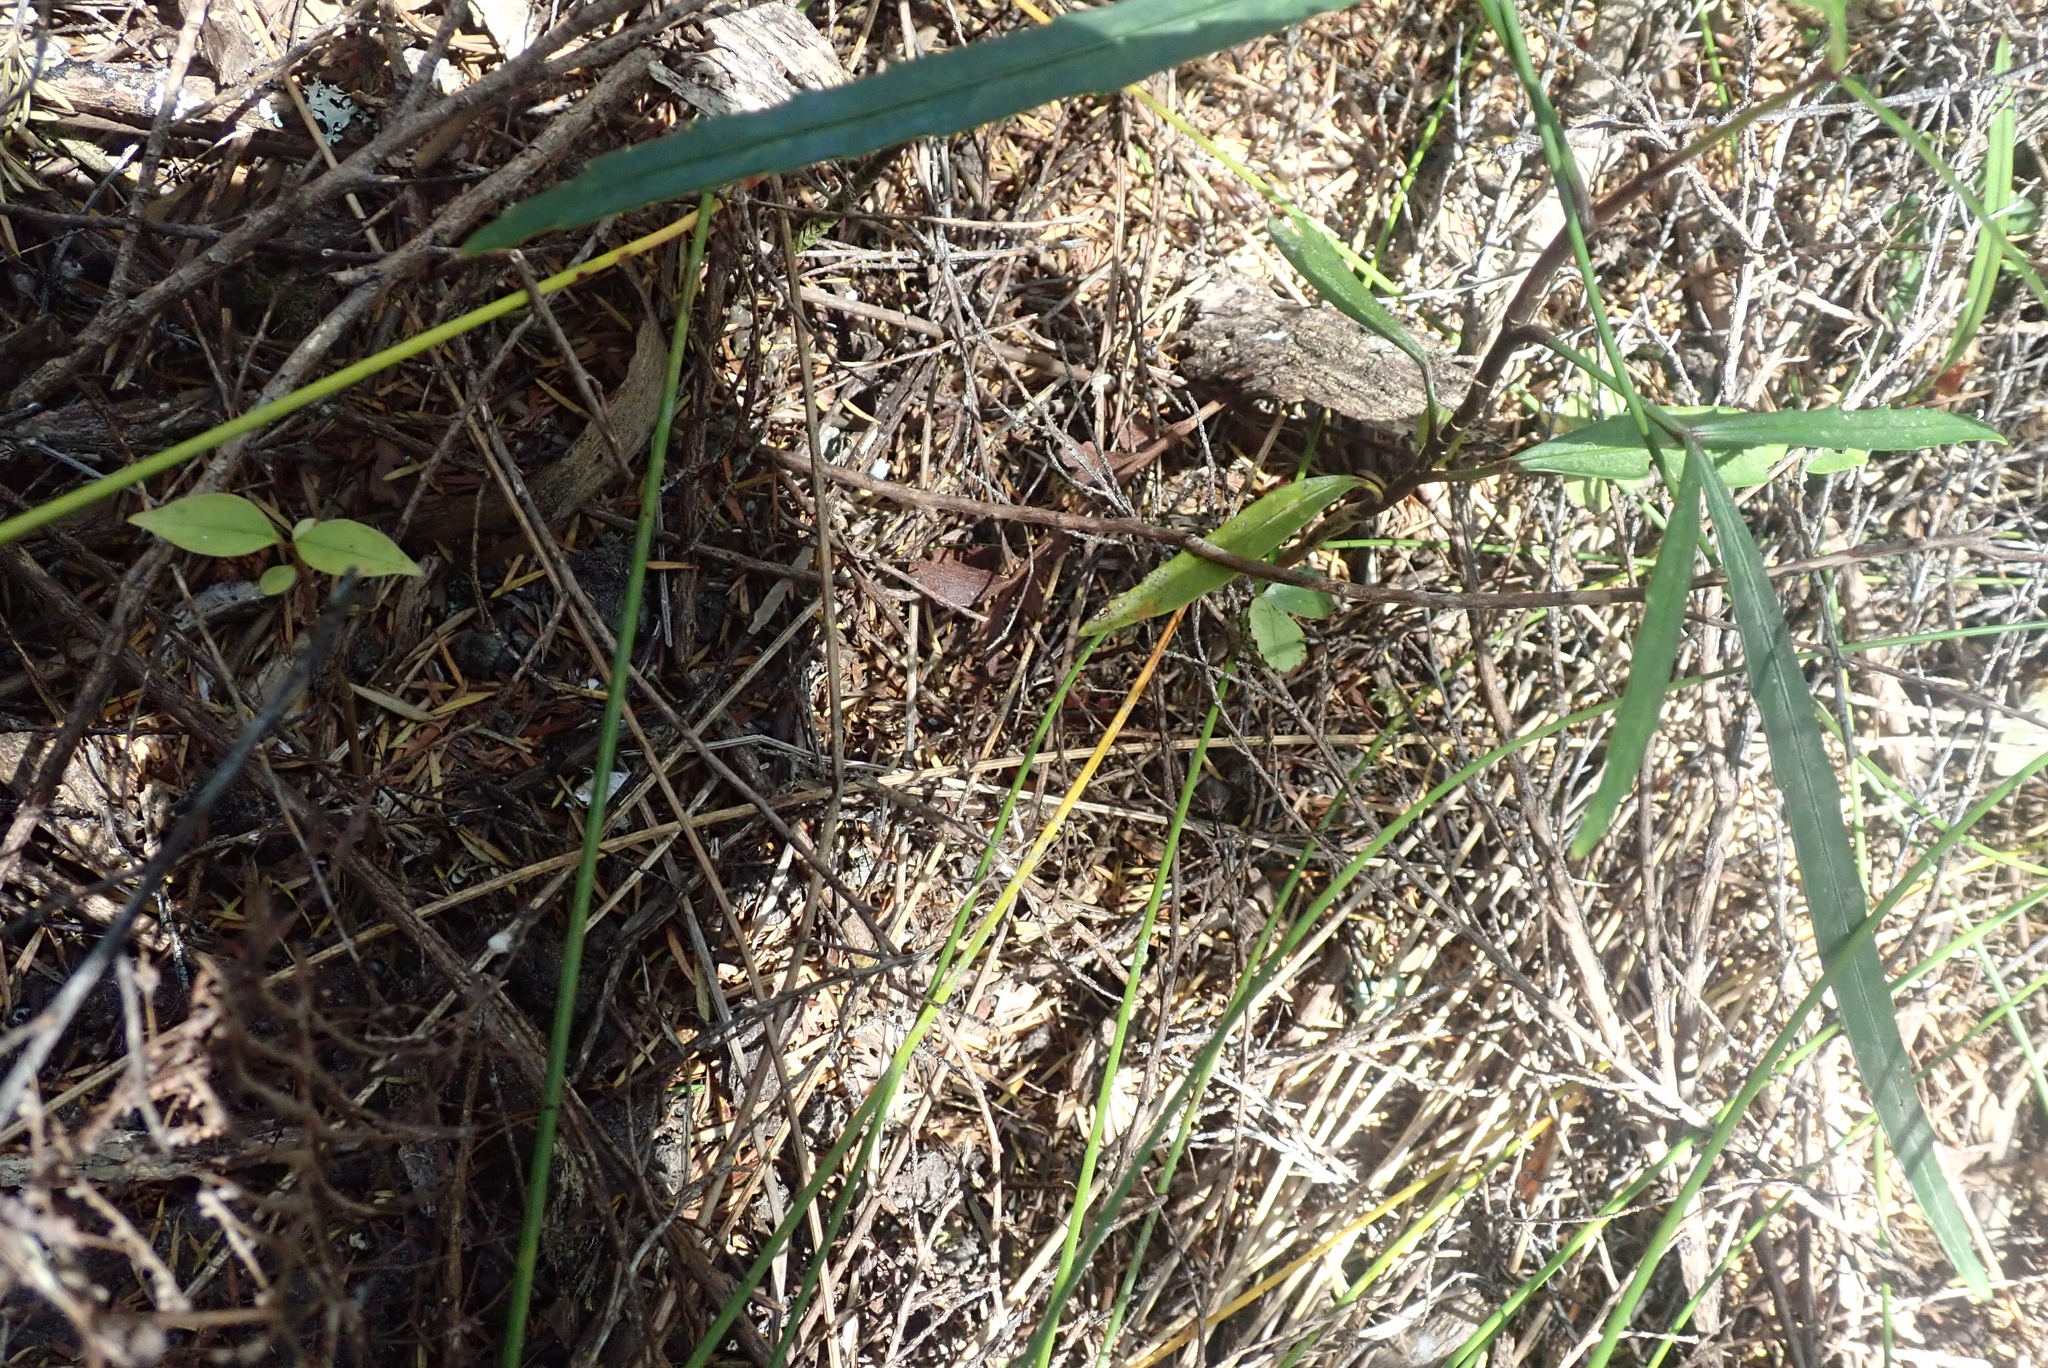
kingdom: Plantae
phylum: Tracheophyta
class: Magnoliopsida
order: Apiales
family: Araliaceae
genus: Pseudopanax
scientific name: Pseudopanax
